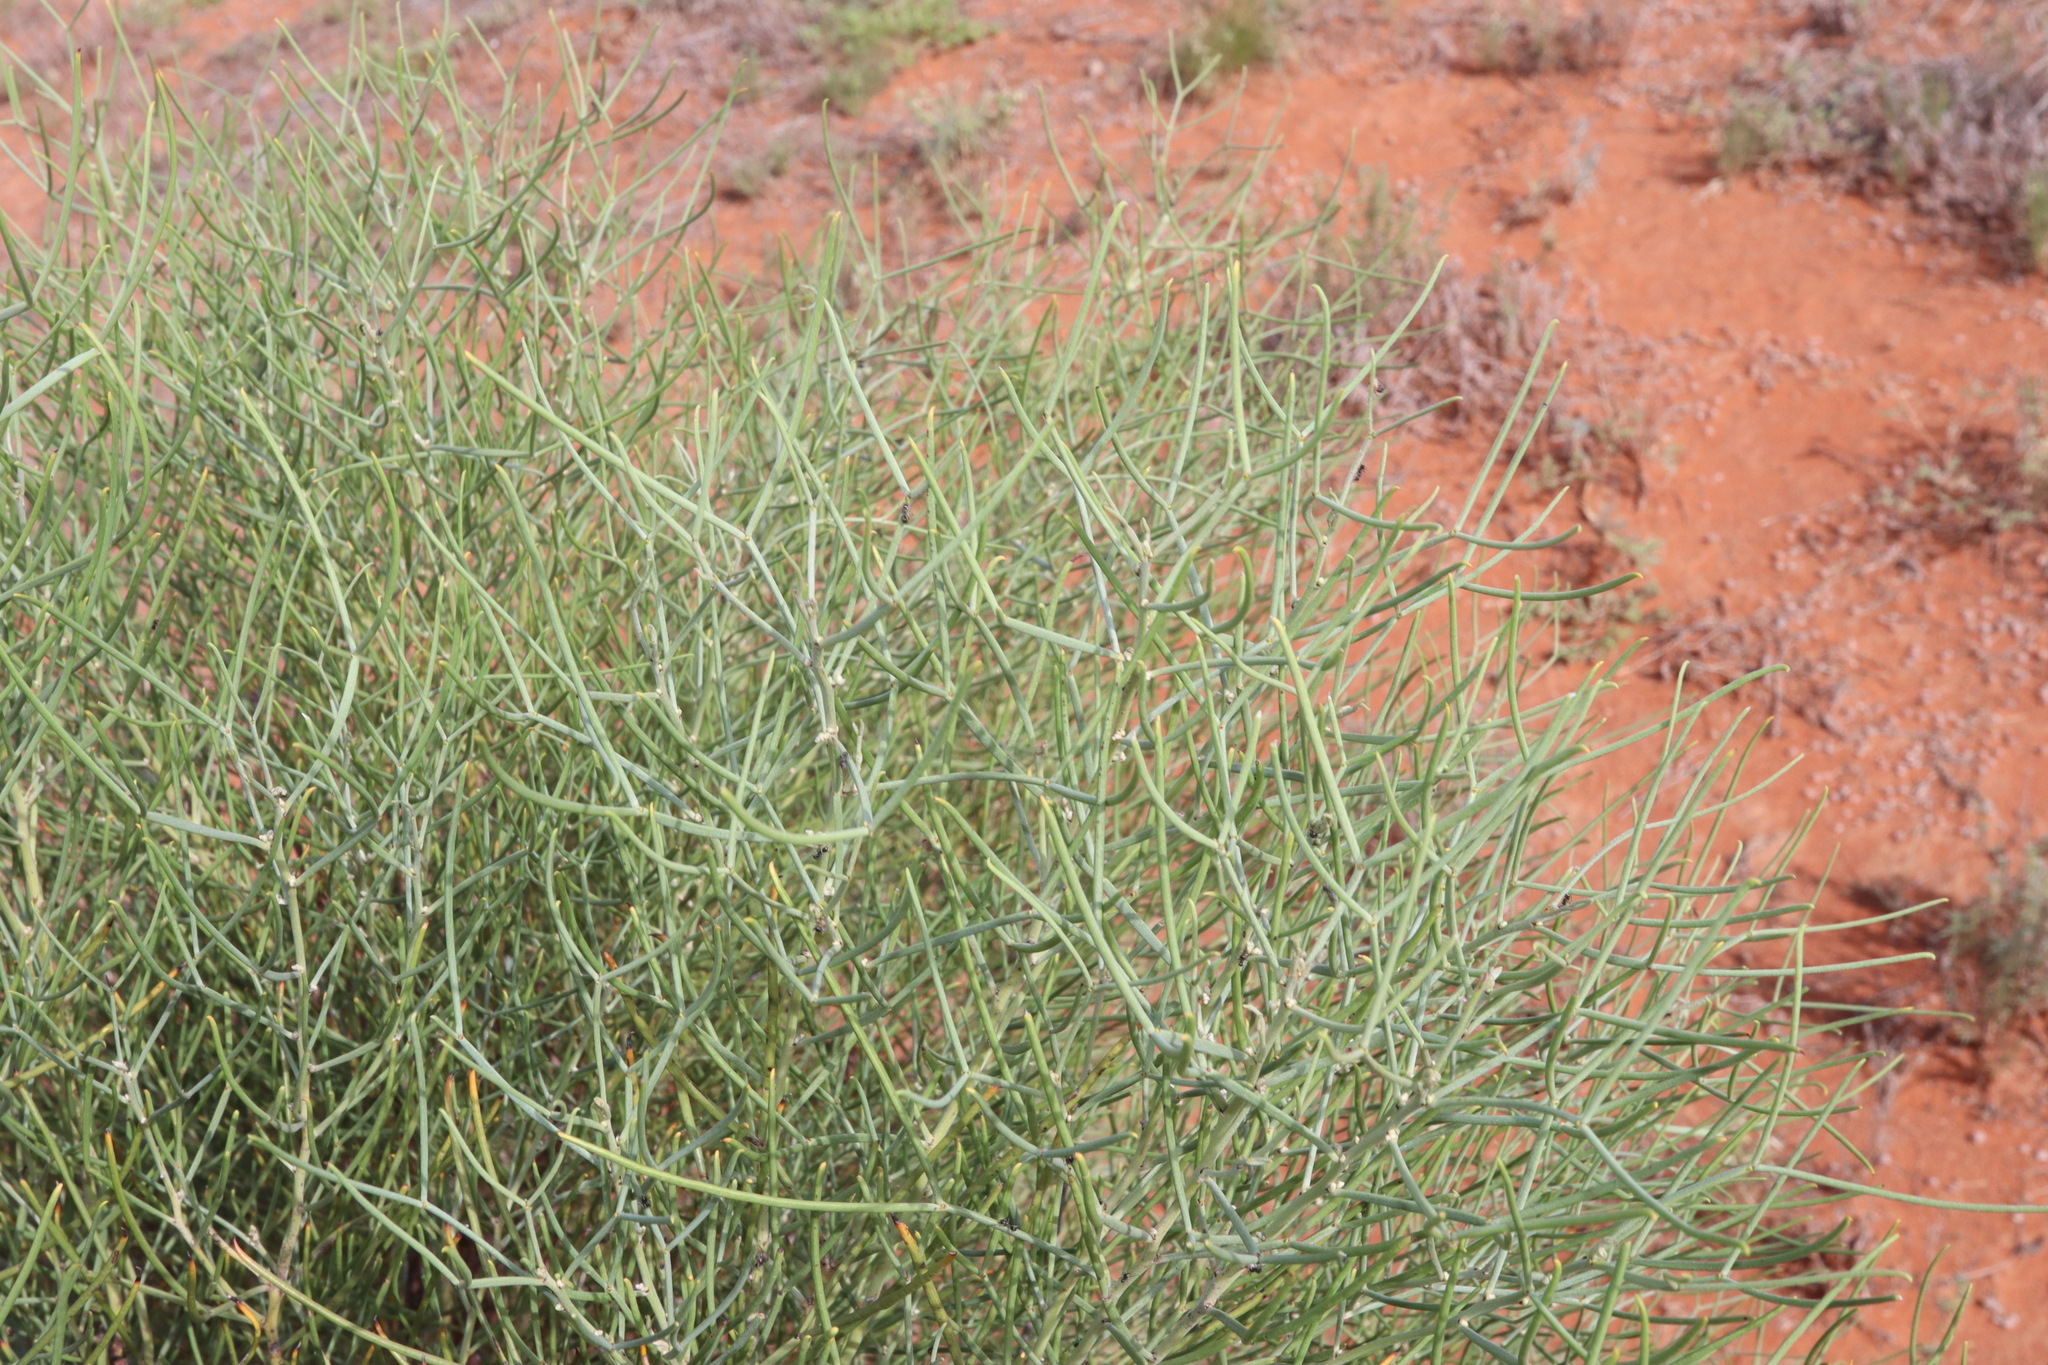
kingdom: Plantae
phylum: Tracheophyta
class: Magnoliopsida
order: Fabales
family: Fabaceae
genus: Senna
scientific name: Senna artemisioides
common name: Burnt-leaved acacia
